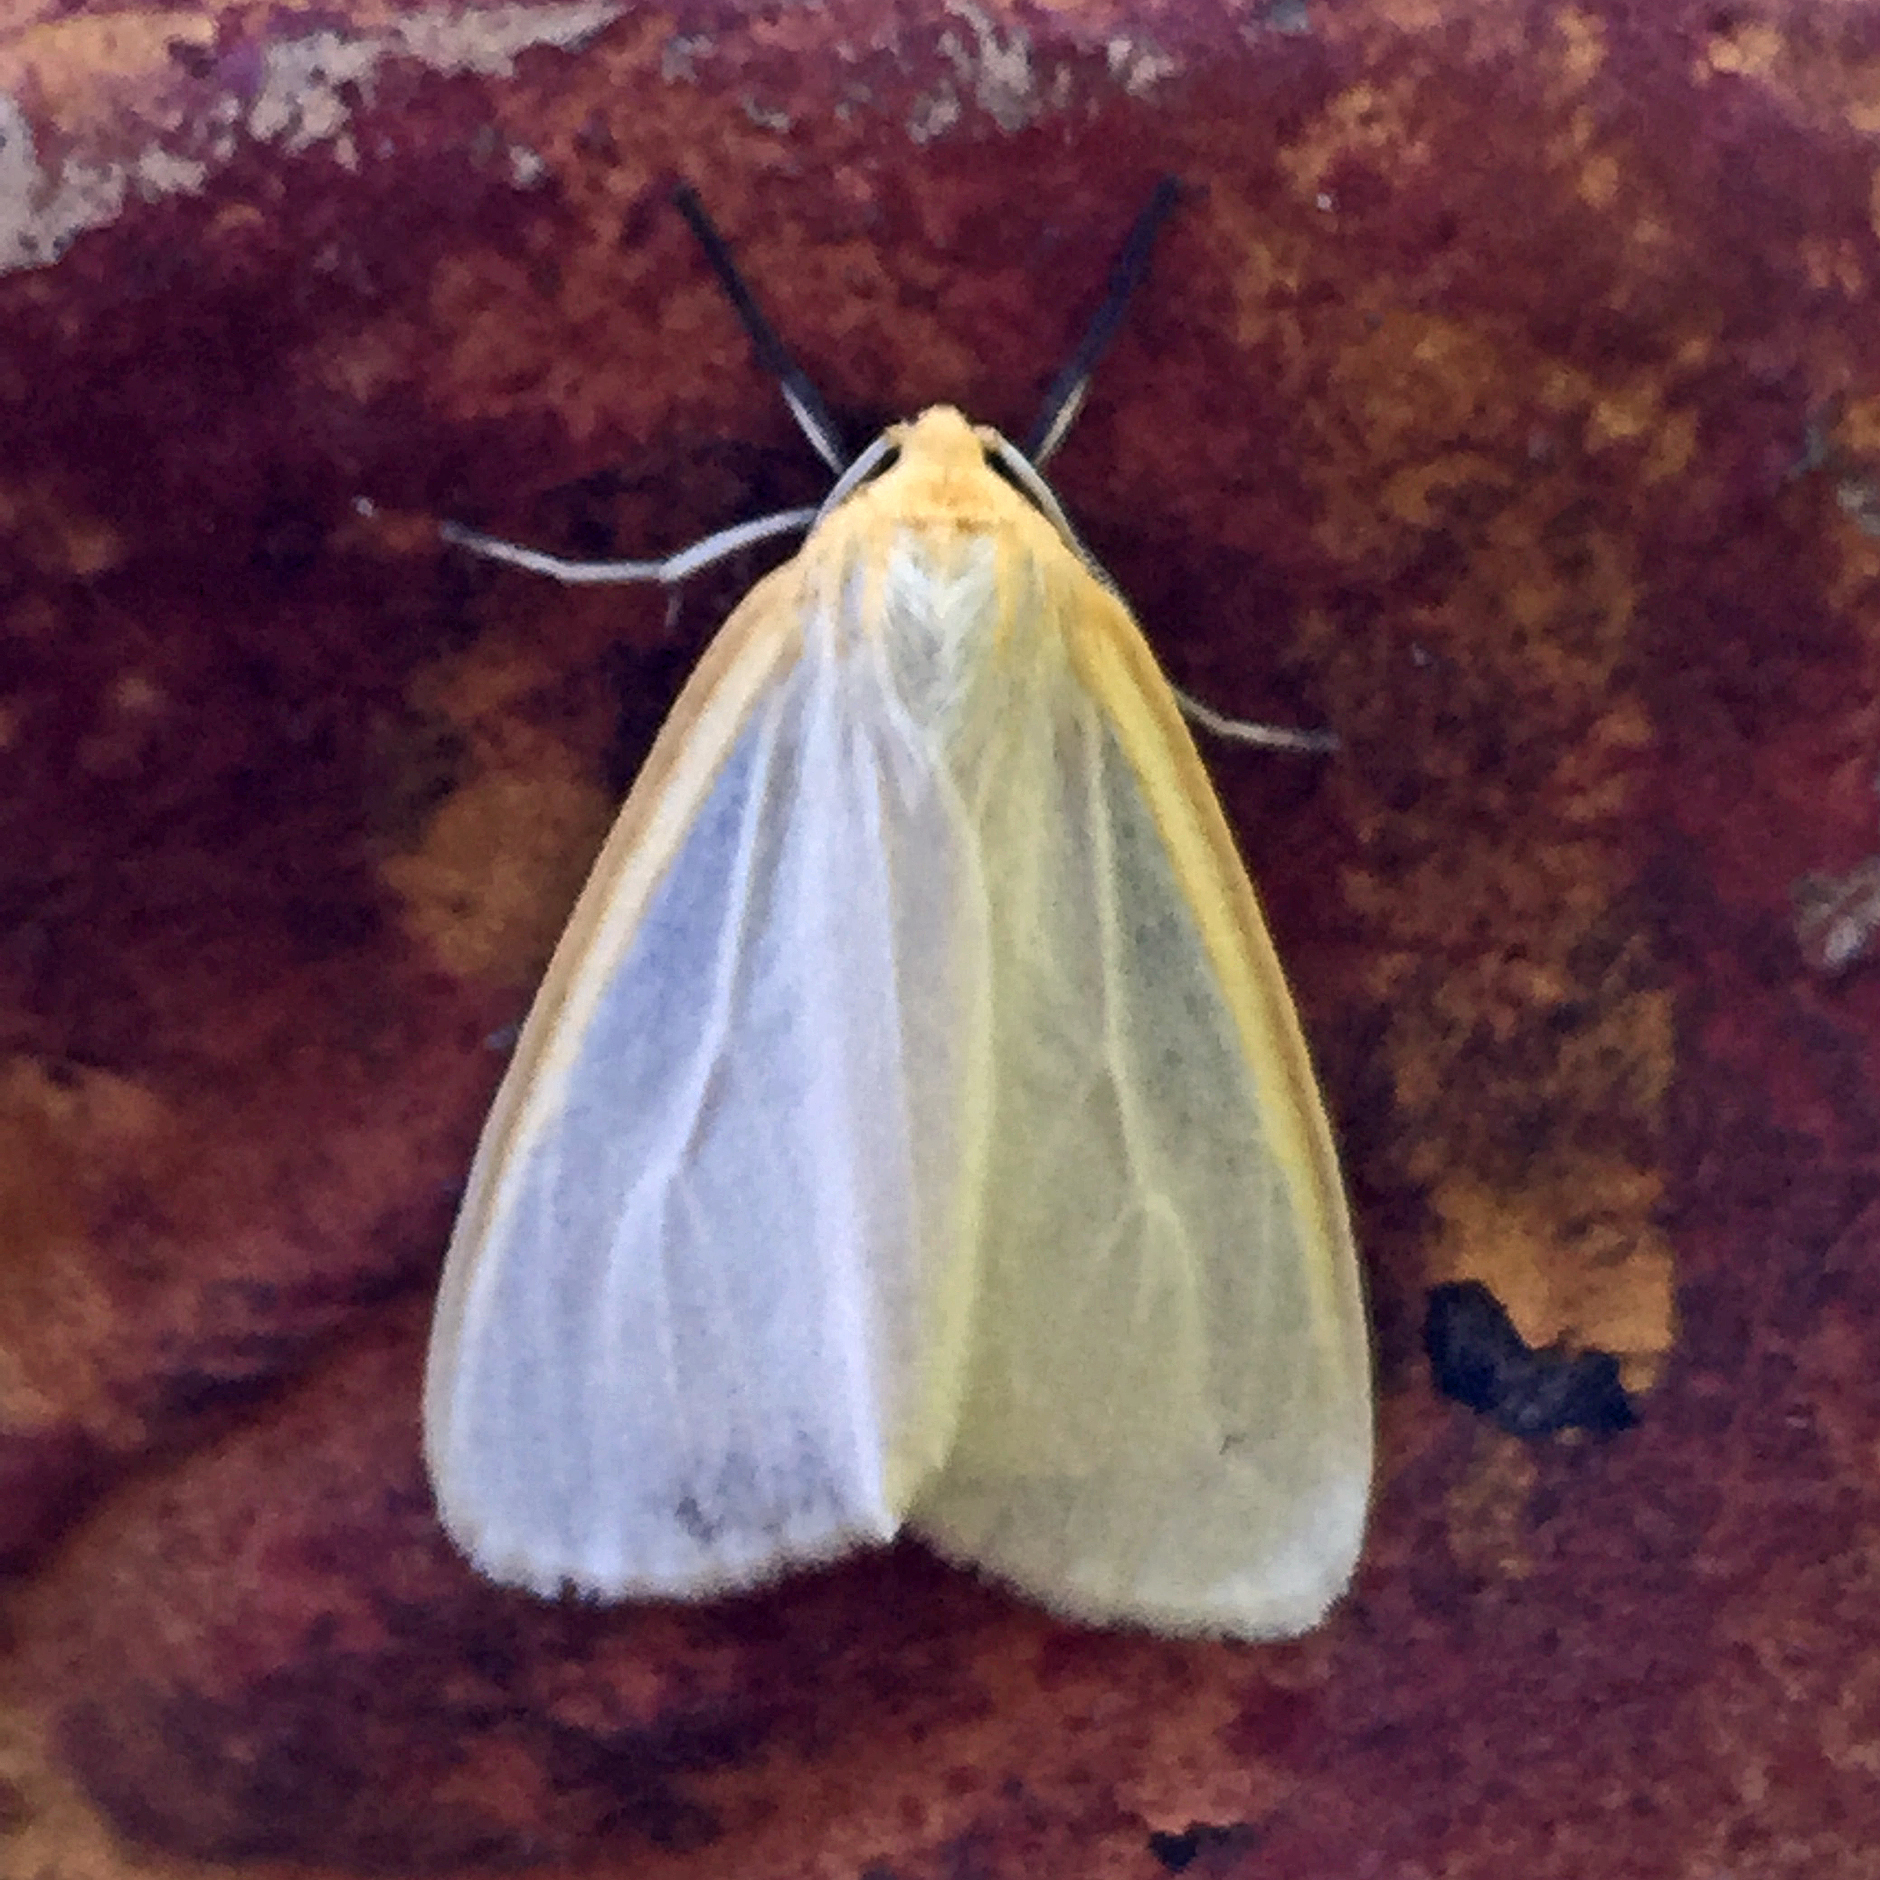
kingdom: Animalia
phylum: Arthropoda
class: Insecta
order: Lepidoptera
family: Erebidae
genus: Cycnia
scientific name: Cycnia tenera
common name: Delicate cycnia moth
